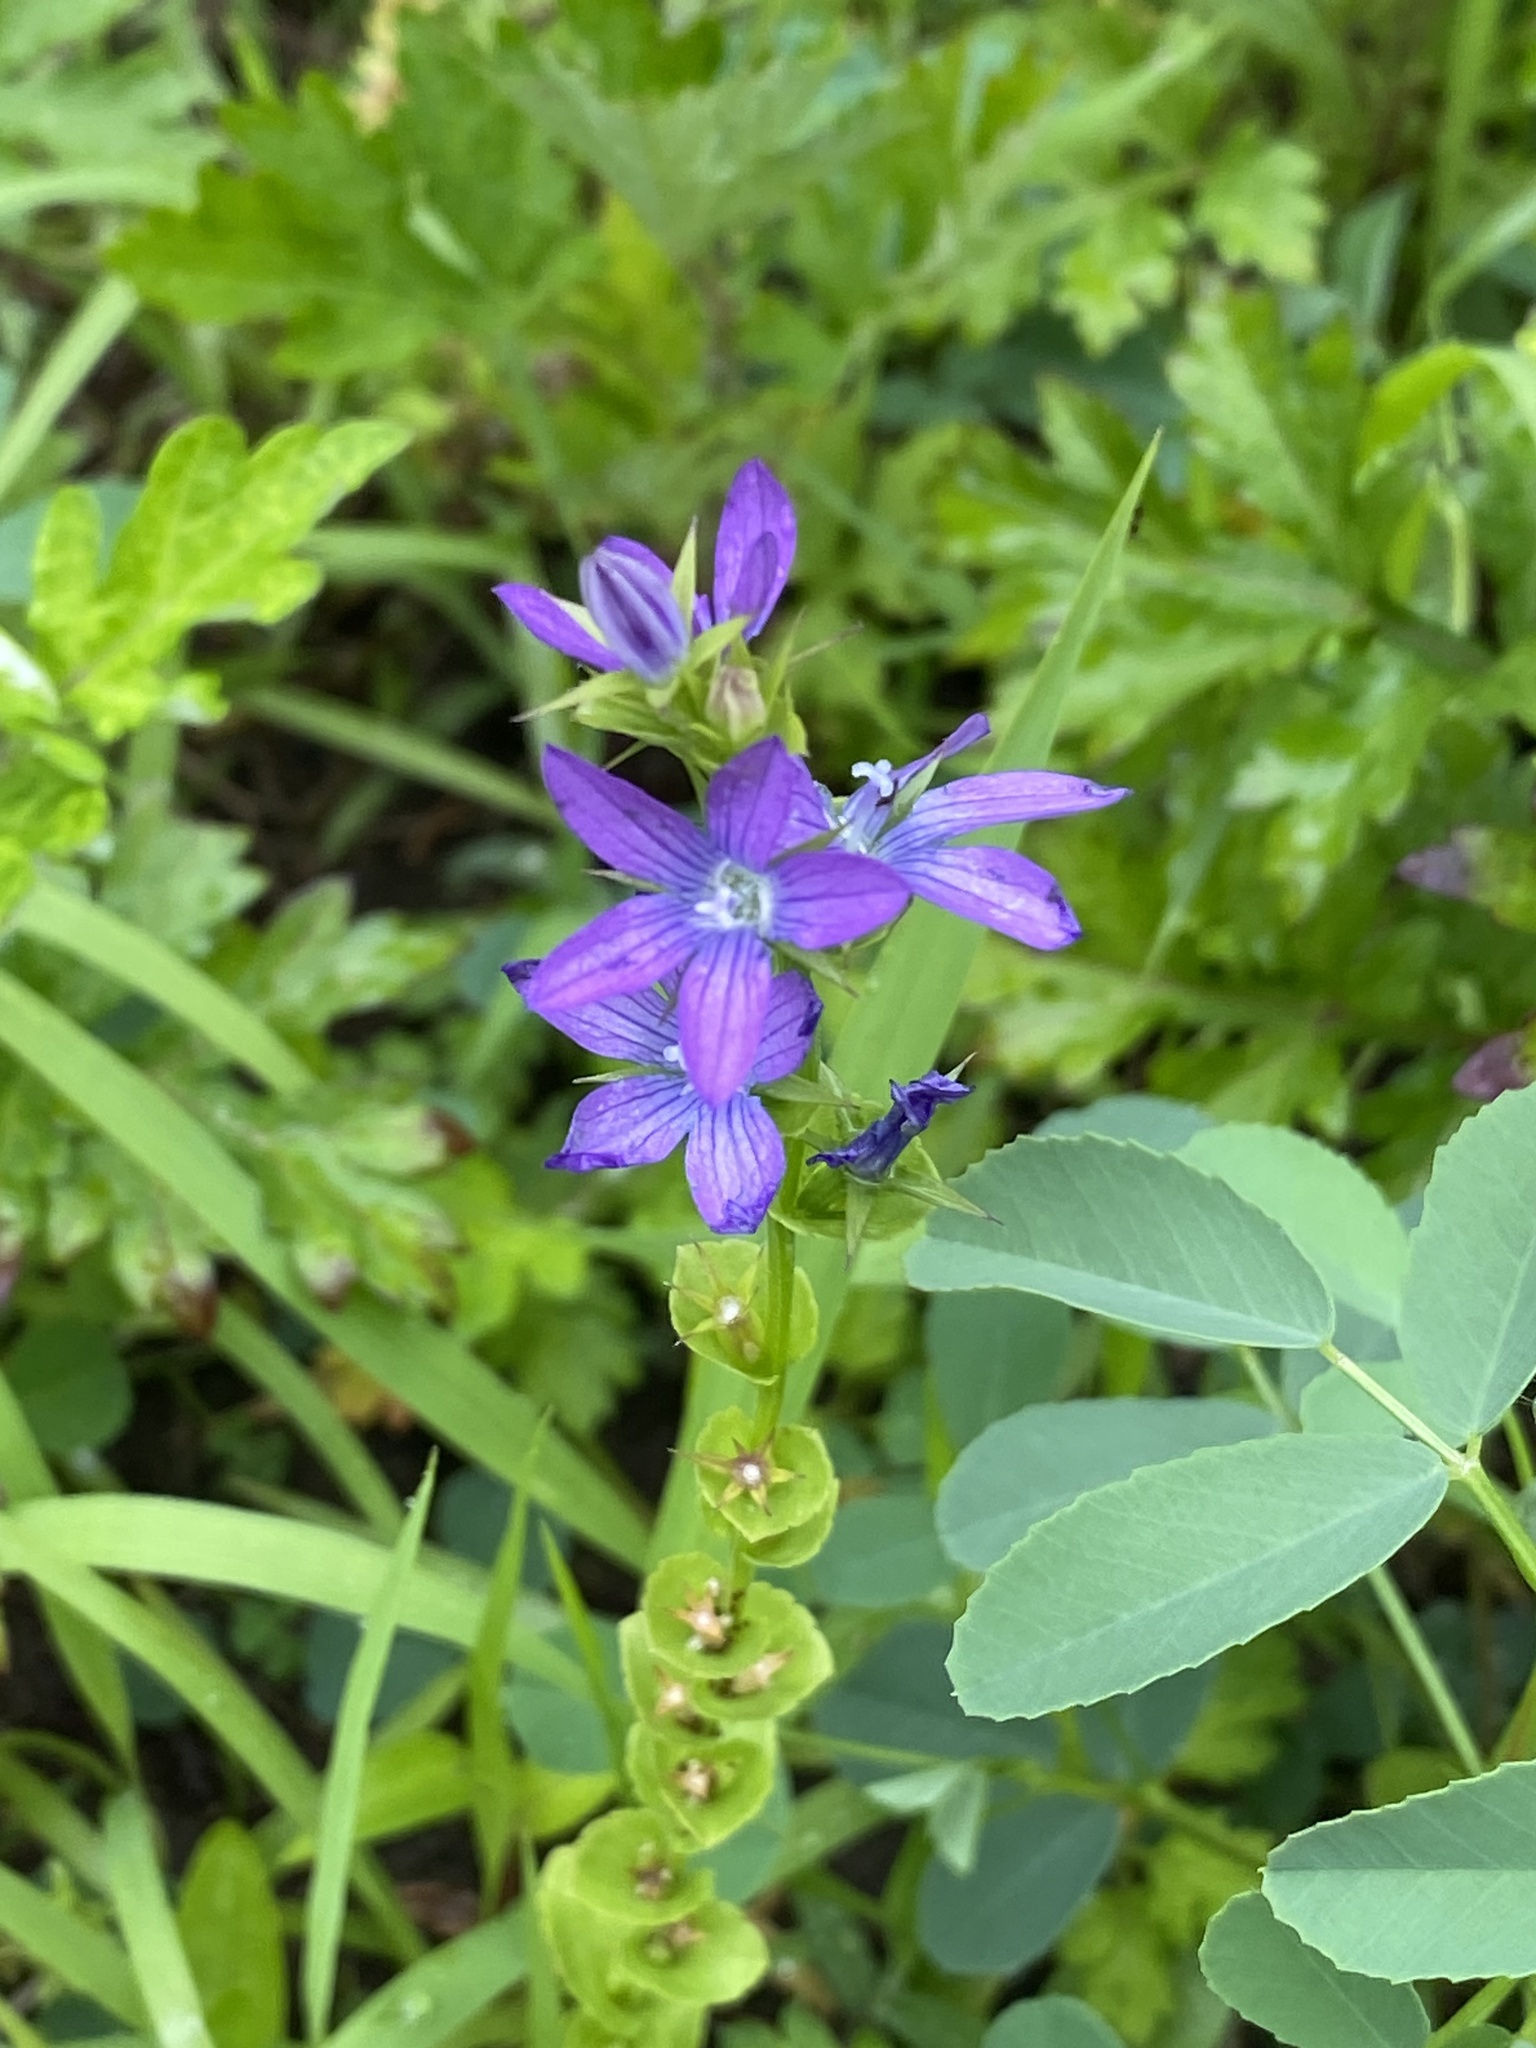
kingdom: Plantae
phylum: Tracheophyta
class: Magnoliopsida
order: Asterales
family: Campanulaceae
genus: Triodanis
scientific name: Triodanis perfoliata
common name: Clasping venus' looking-glass
